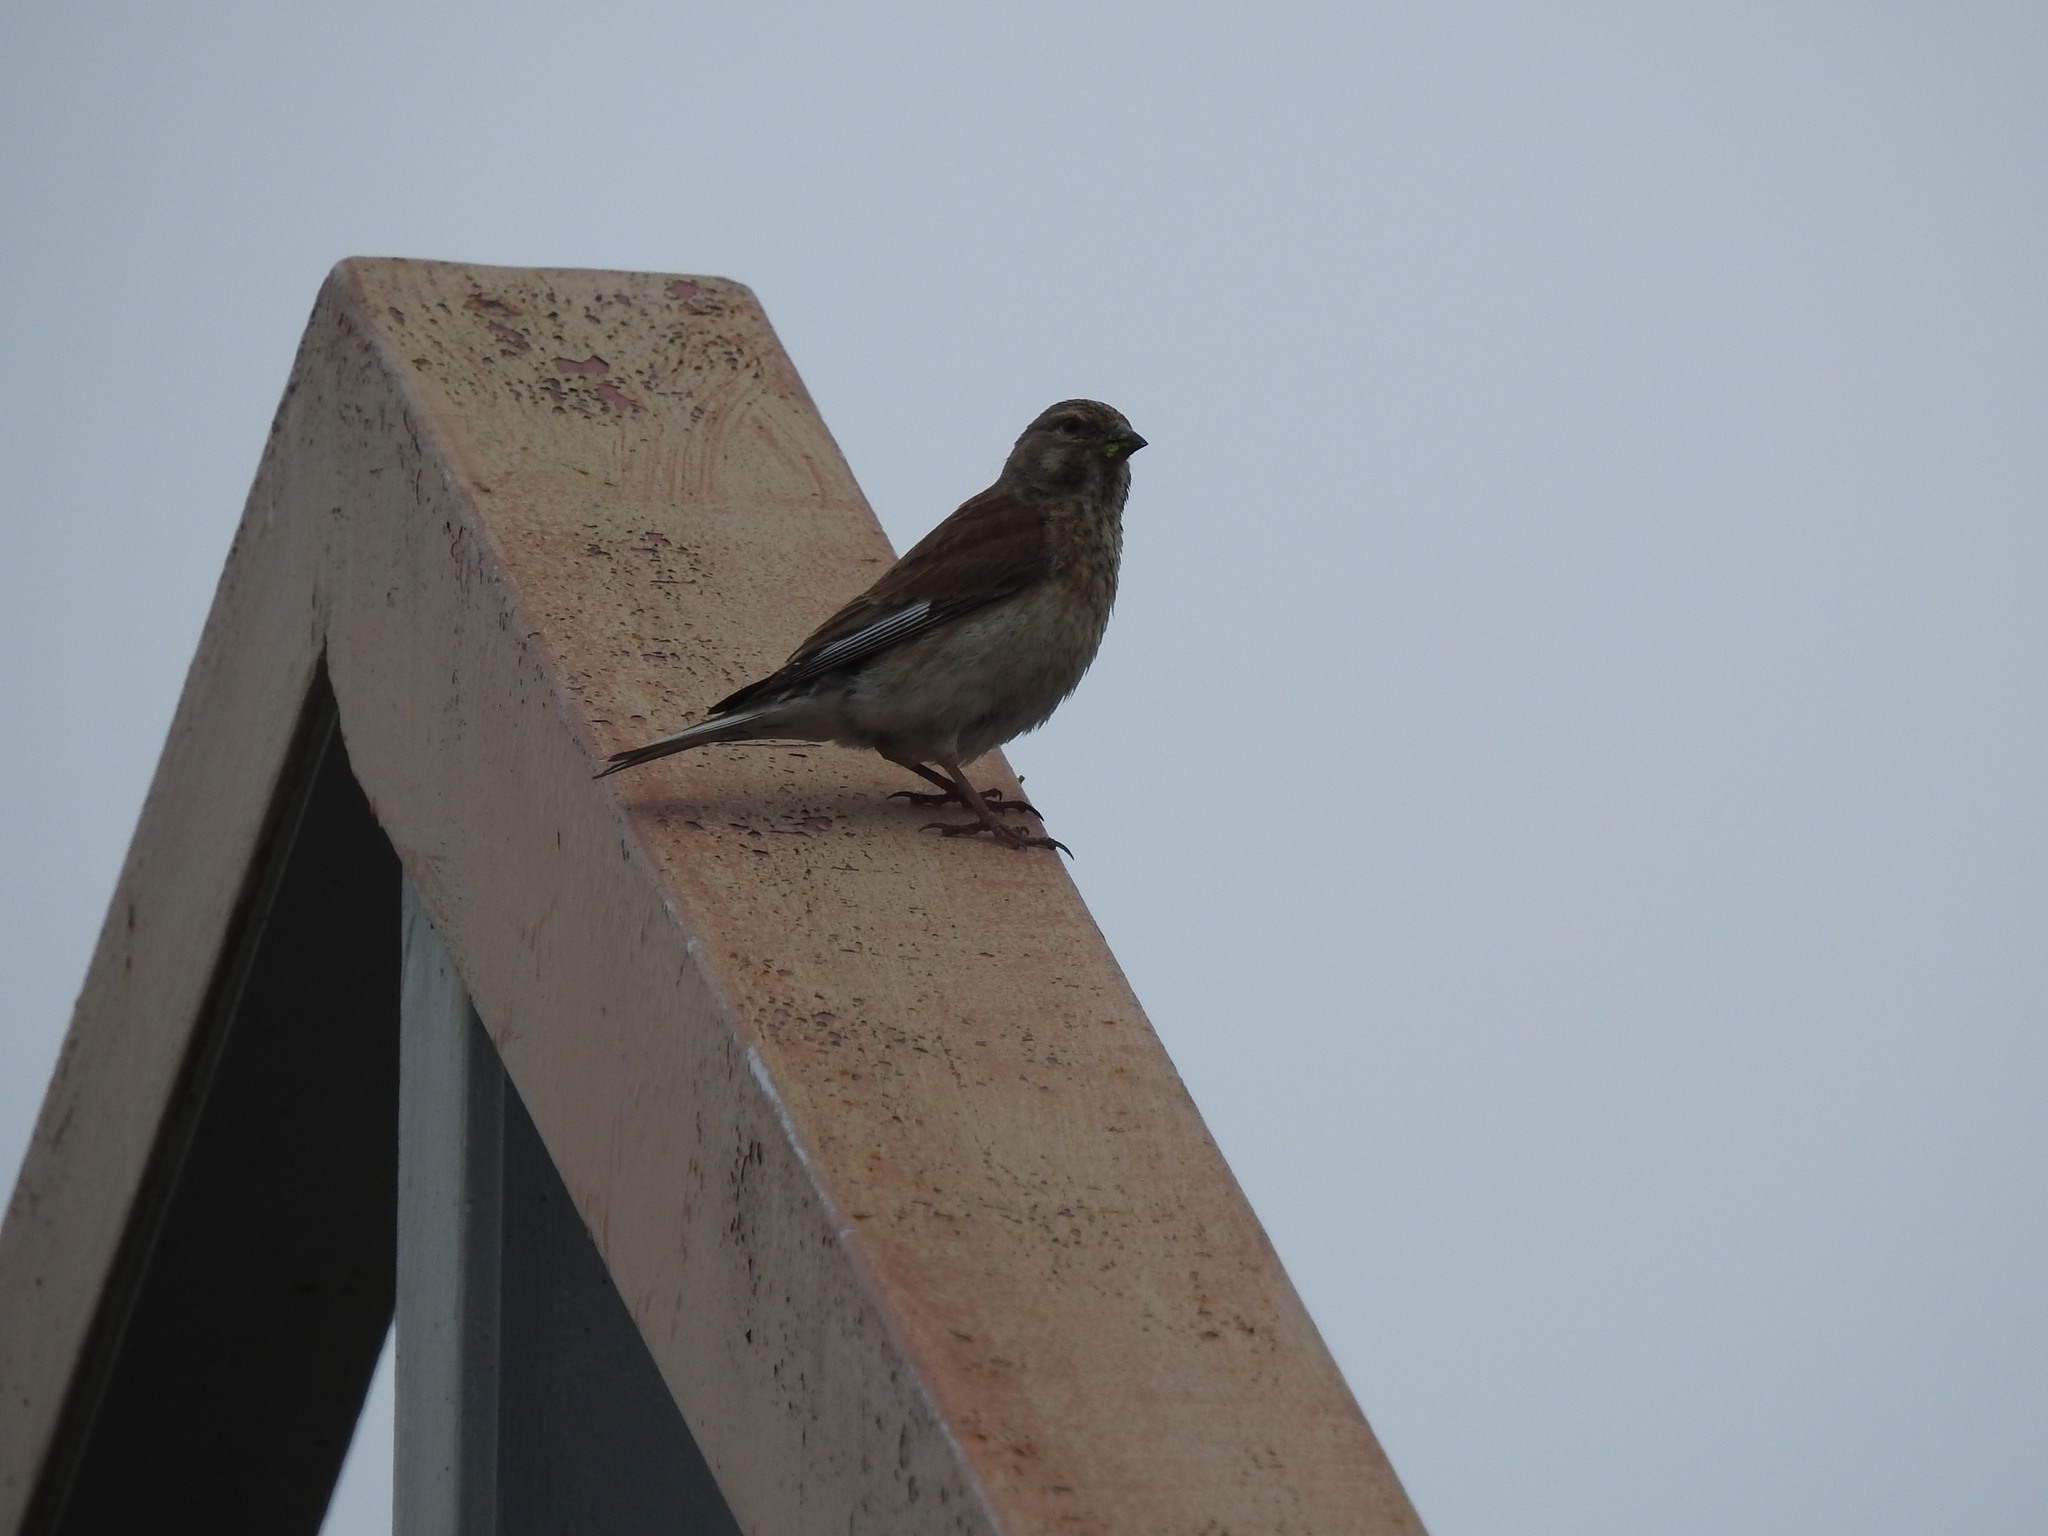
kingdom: Animalia
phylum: Chordata
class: Aves
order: Passeriformes
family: Fringillidae
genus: Linaria
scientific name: Linaria cannabina
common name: Common linnet
